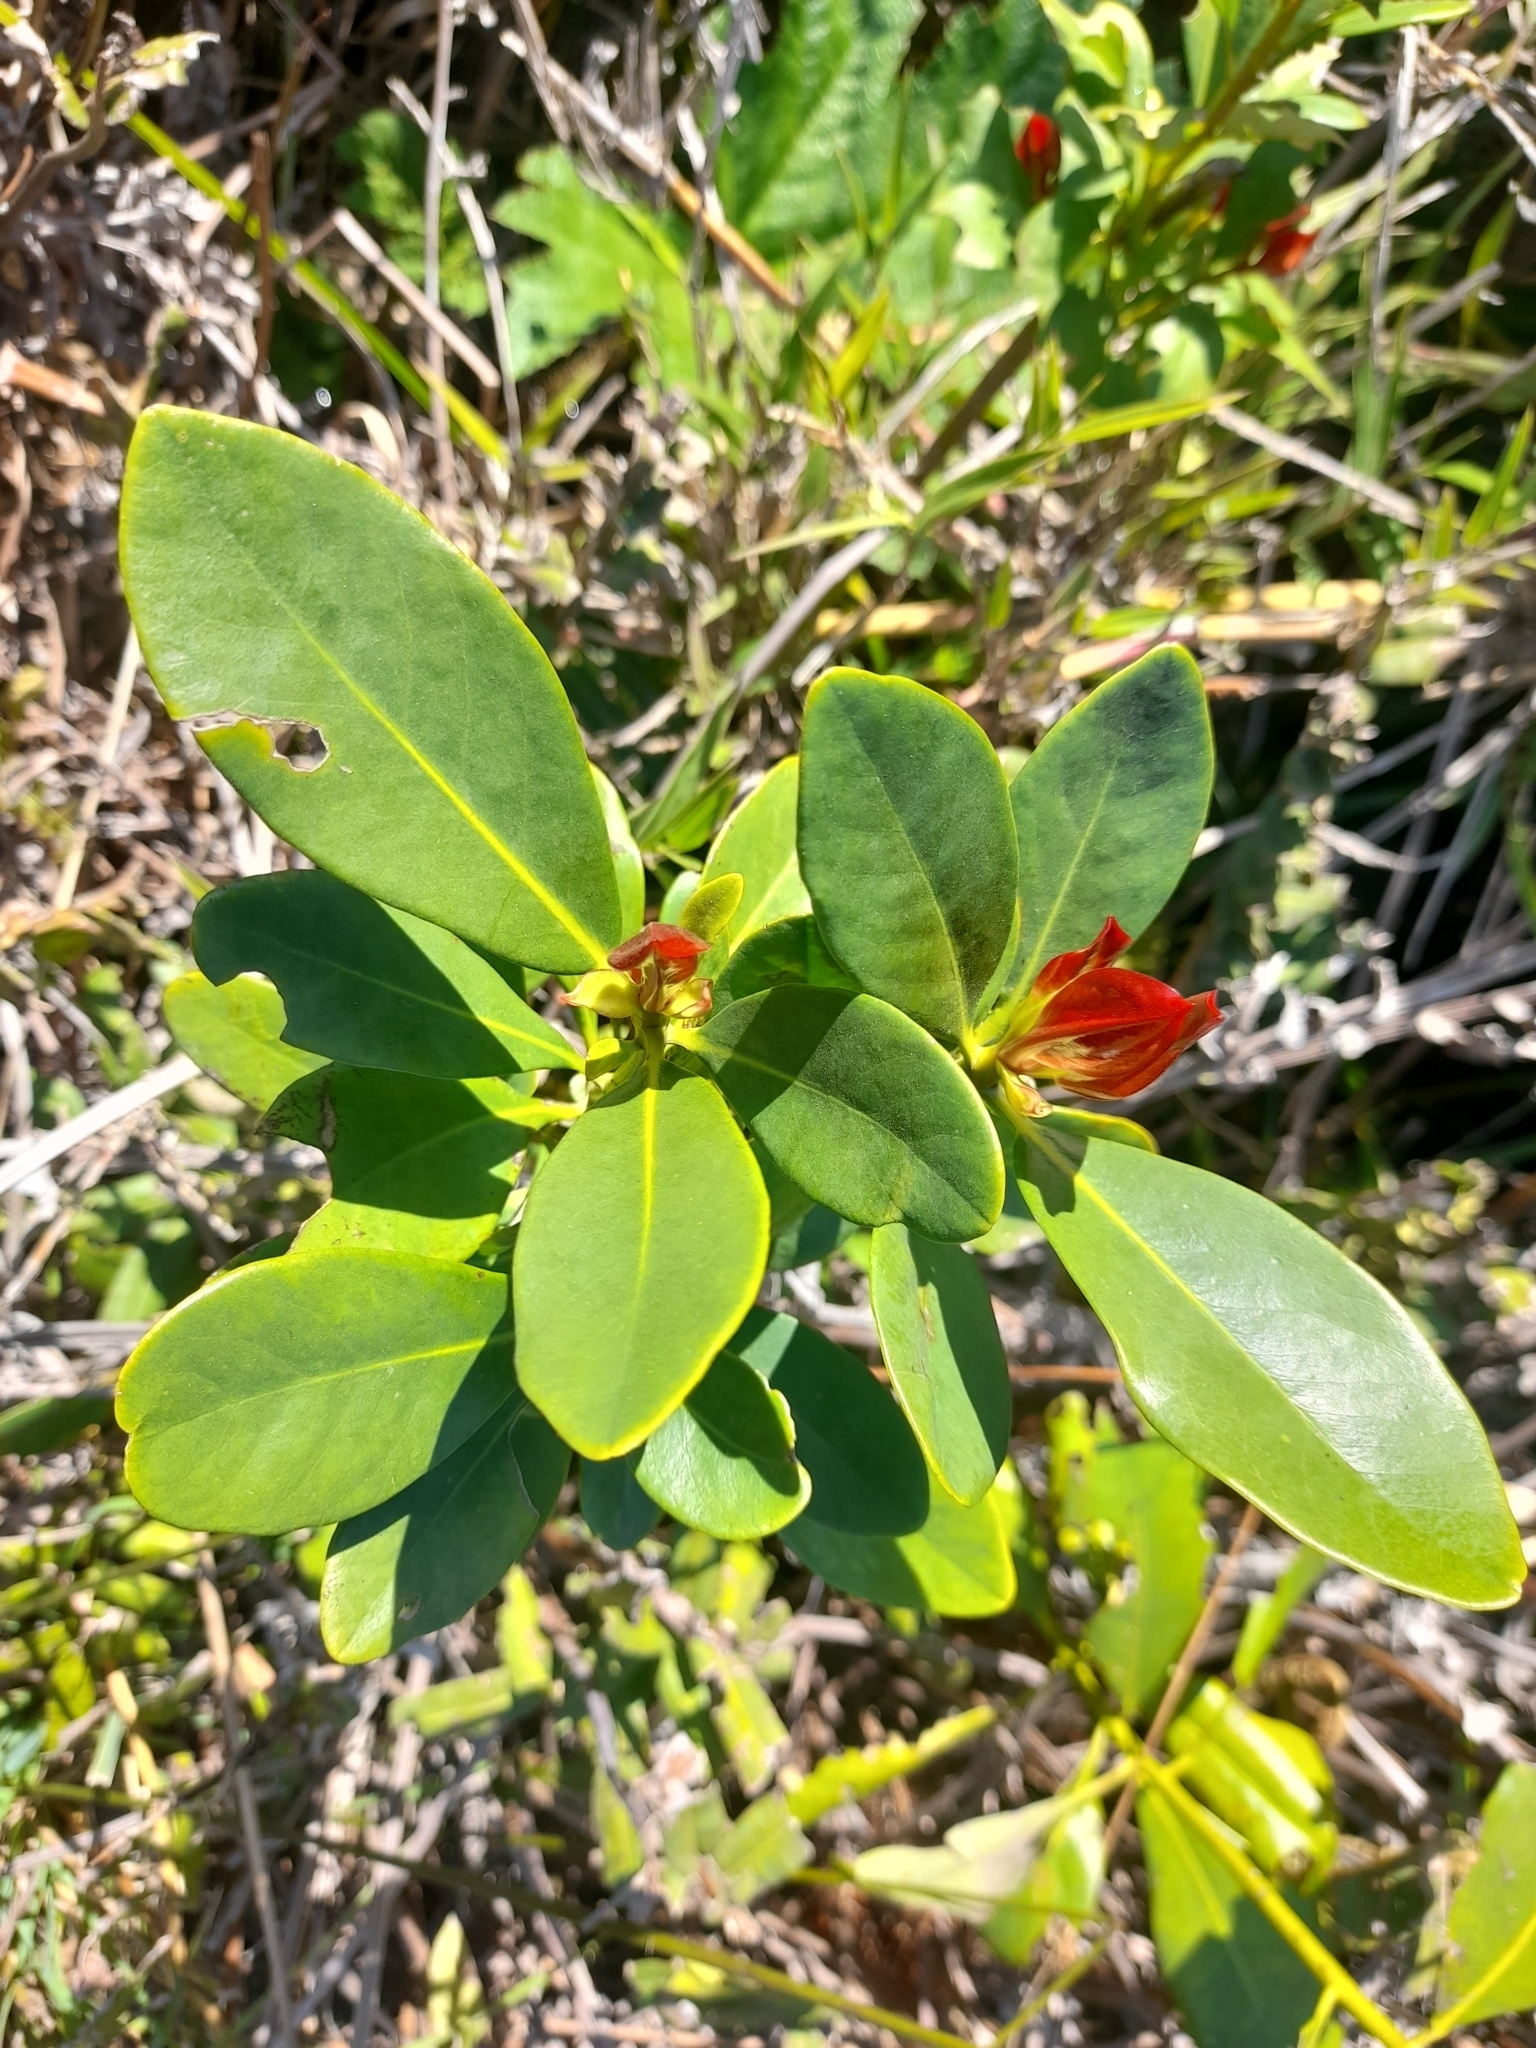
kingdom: Plantae
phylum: Tracheophyta
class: Magnoliopsida
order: Canellales
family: Winteraceae
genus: Drimys
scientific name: Drimys winteri
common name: Winter's-bark
